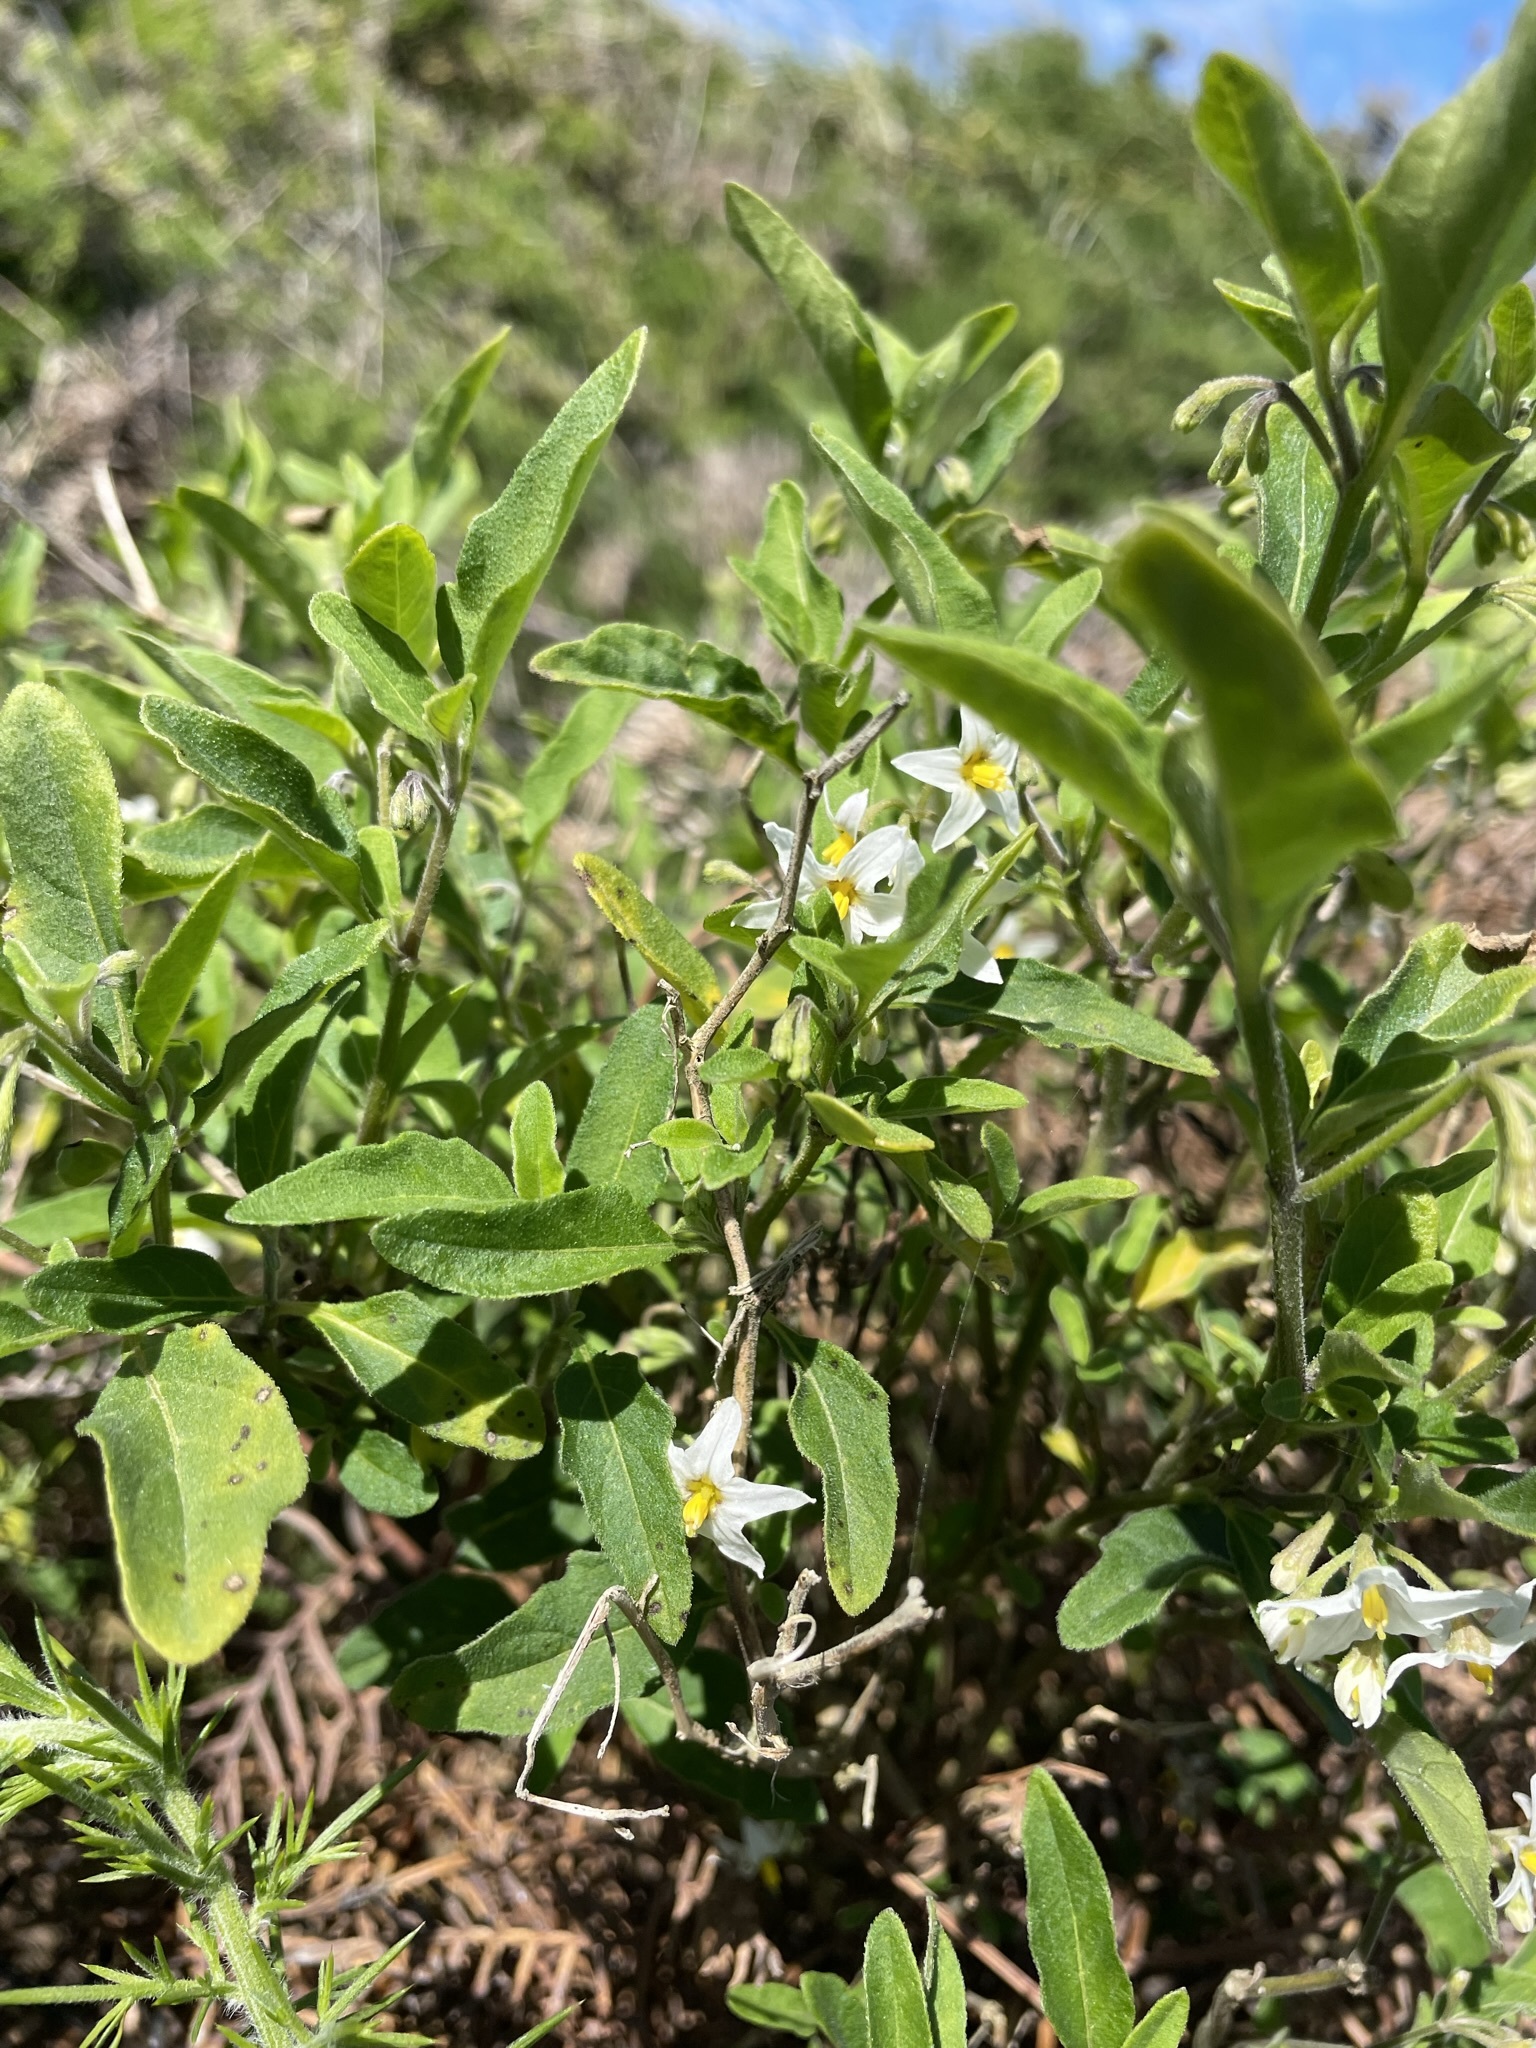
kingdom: Plantae
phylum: Tracheophyta
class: Magnoliopsida
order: Solanales
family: Solanaceae
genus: Solanum
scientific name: Solanum chenopodioides
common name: Tall nightshade
